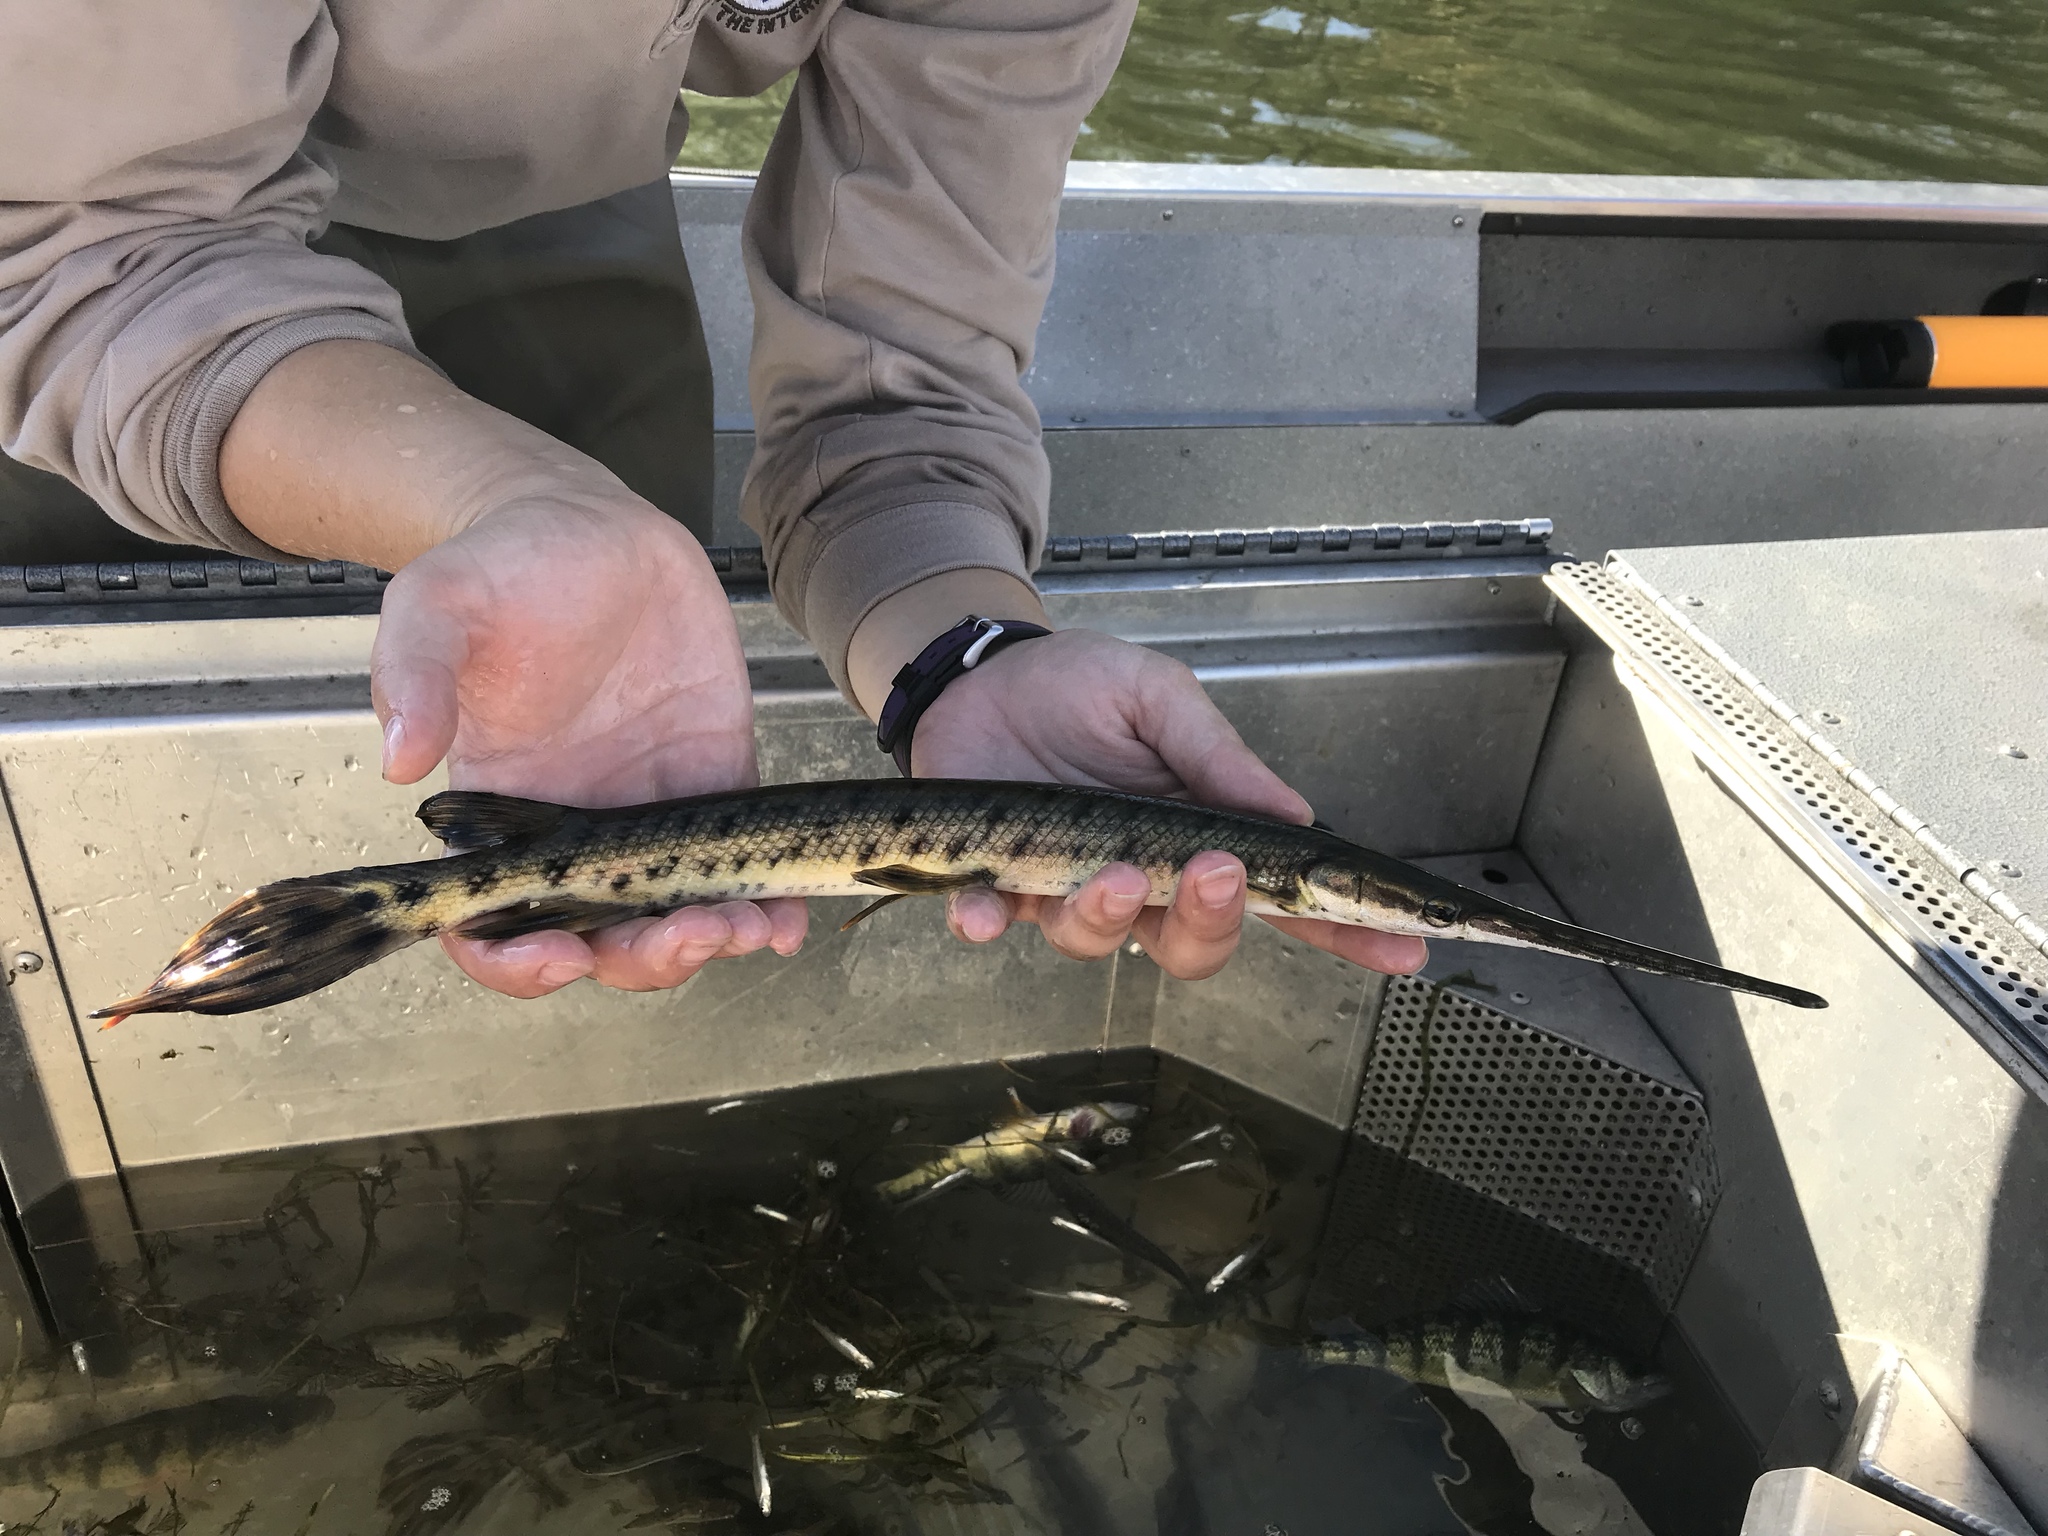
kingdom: Animalia
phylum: Chordata
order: Lepisosteiformes
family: Lepisosteidae
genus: Lepisosteus
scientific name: Lepisosteus osseus
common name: Longnose gar
